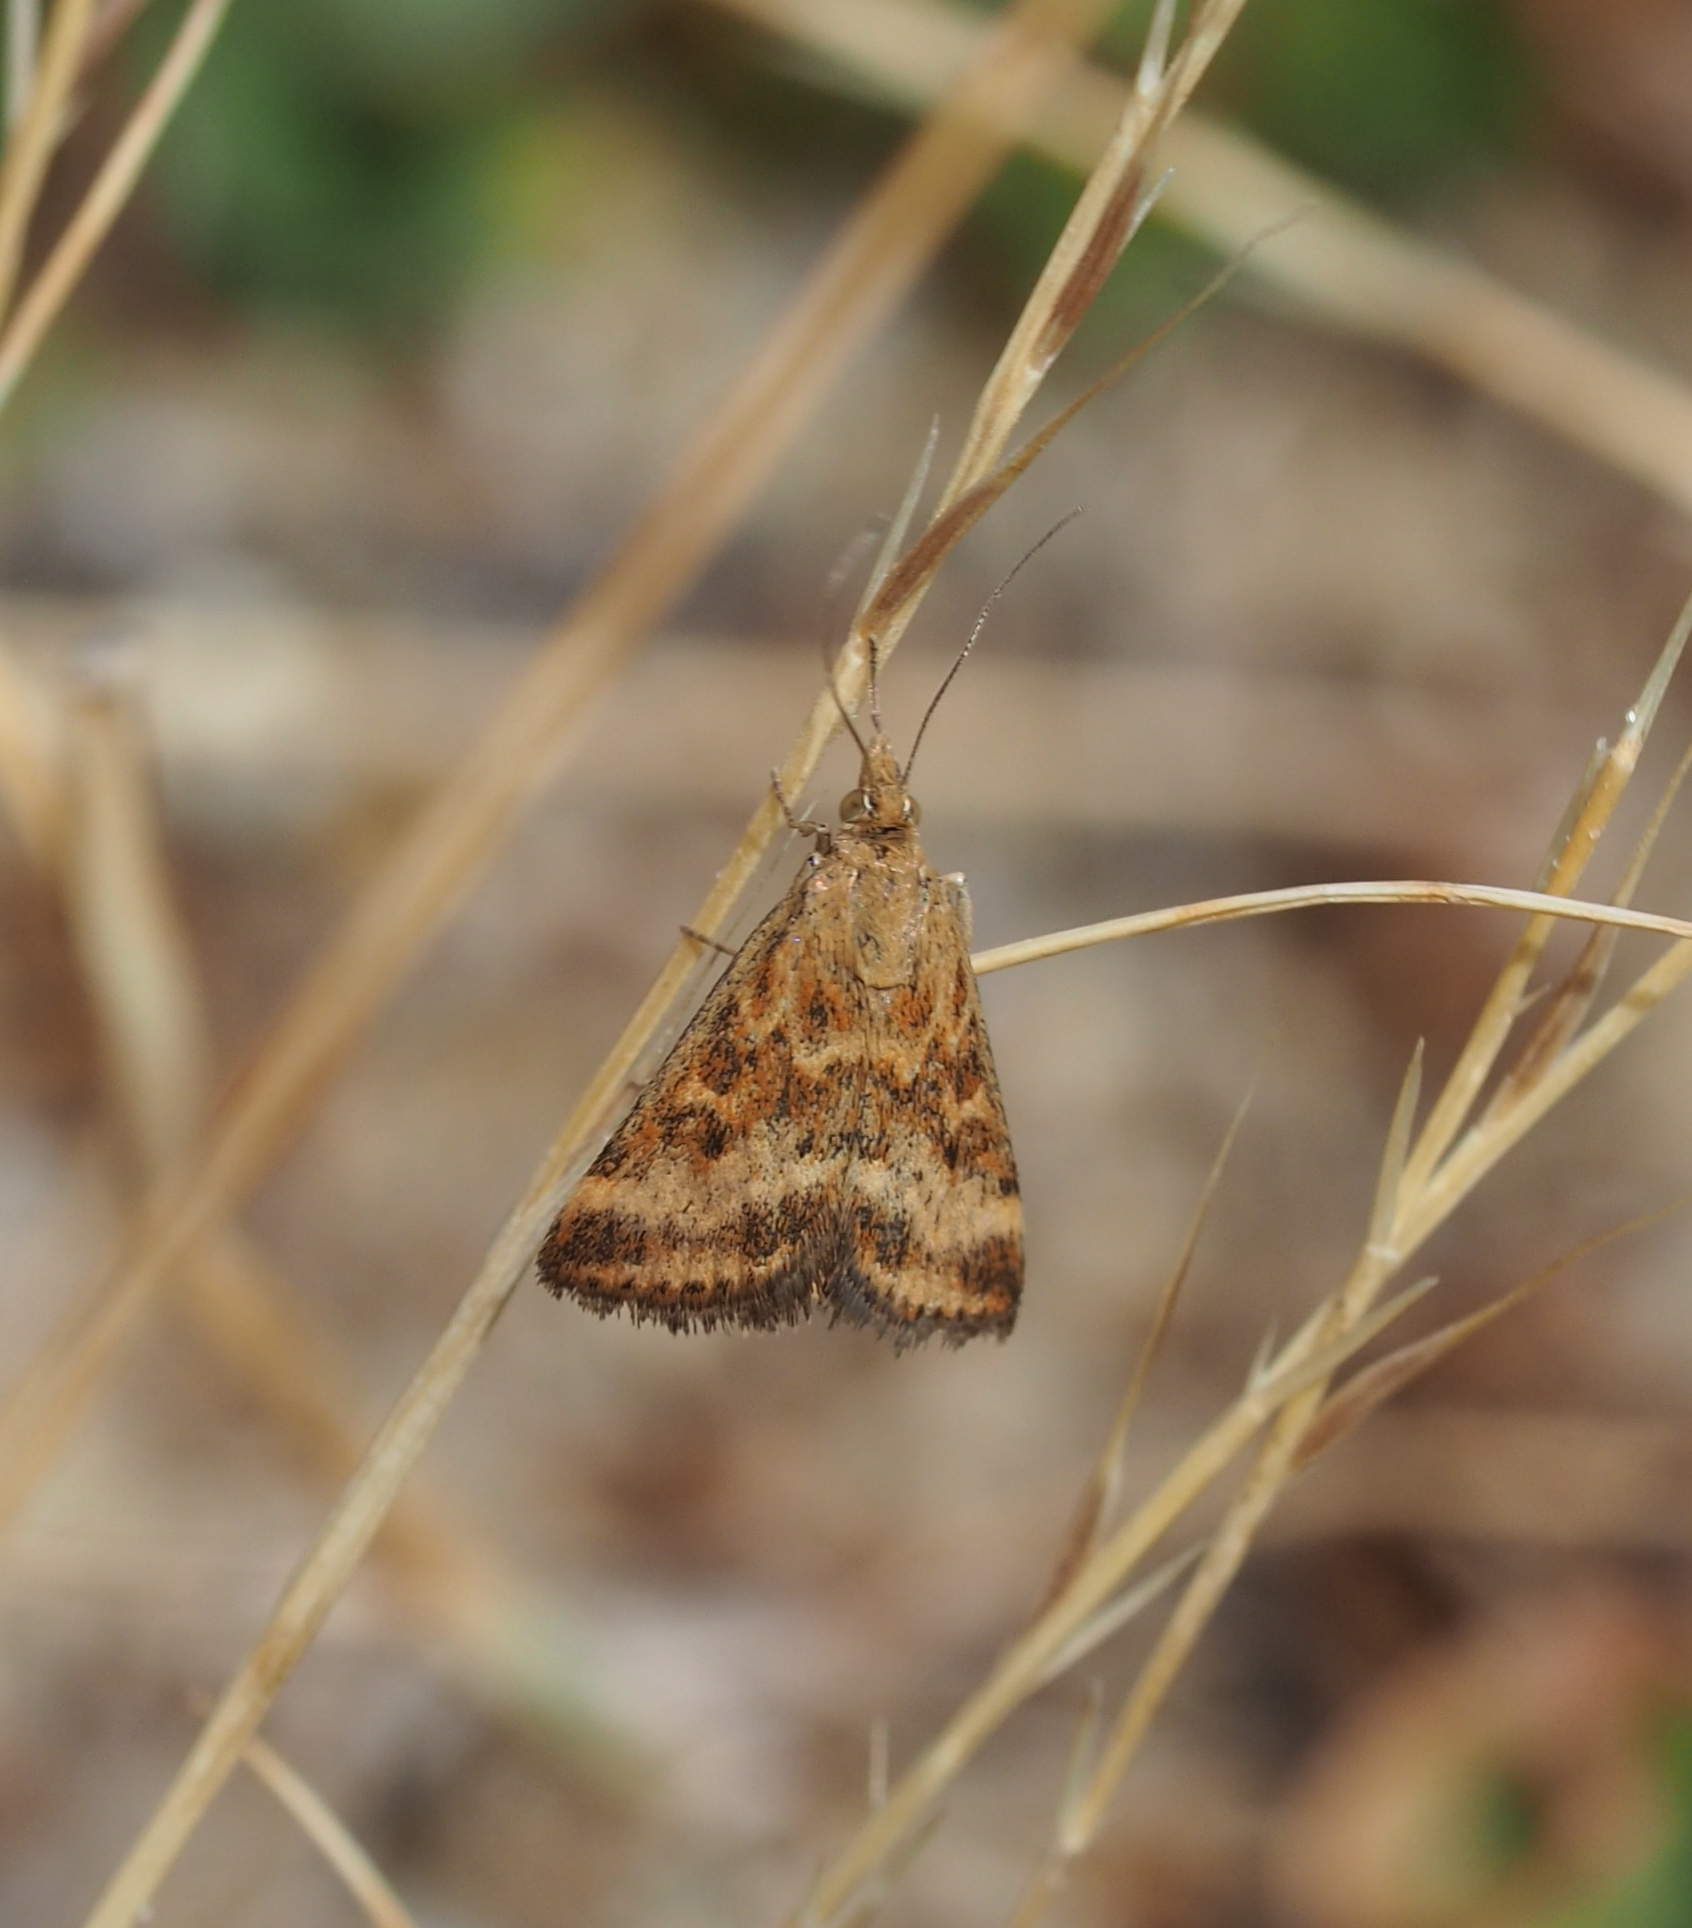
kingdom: Animalia
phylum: Arthropoda
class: Insecta
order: Lepidoptera
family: Crambidae
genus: Pyrausta
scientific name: Pyrausta despicata
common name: Straw-barred pearl
